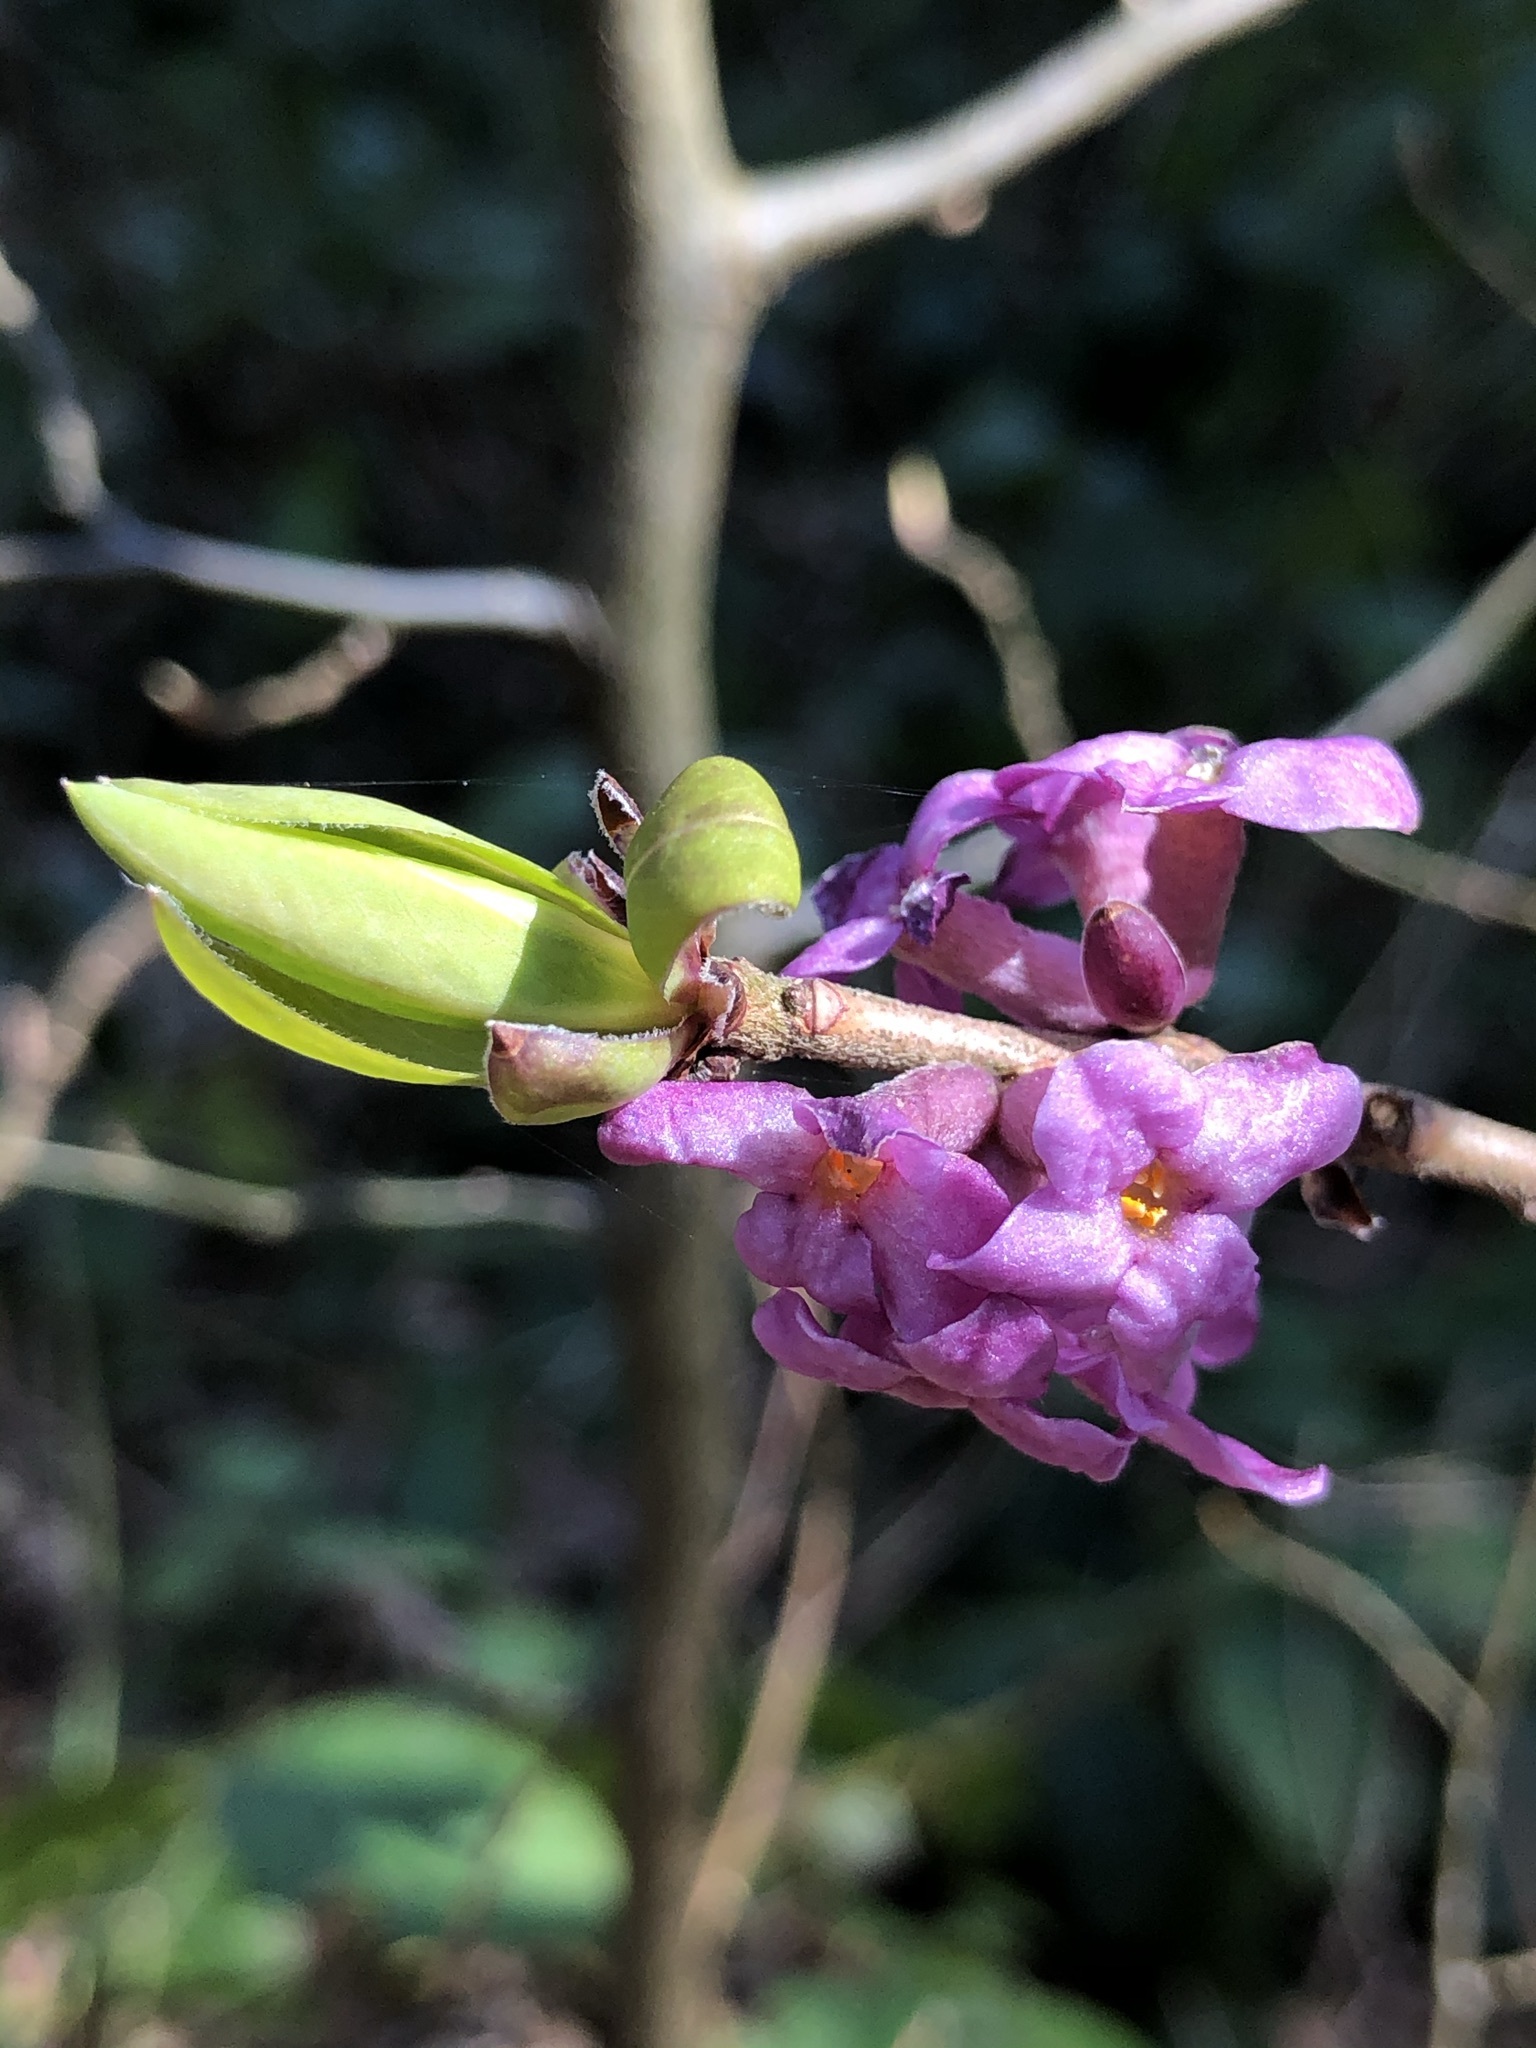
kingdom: Plantae
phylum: Tracheophyta
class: Magnoliopsida
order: Malvales
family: Thymelaeaceae
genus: Daphne
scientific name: Daphne mezereum
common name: Mezereon
